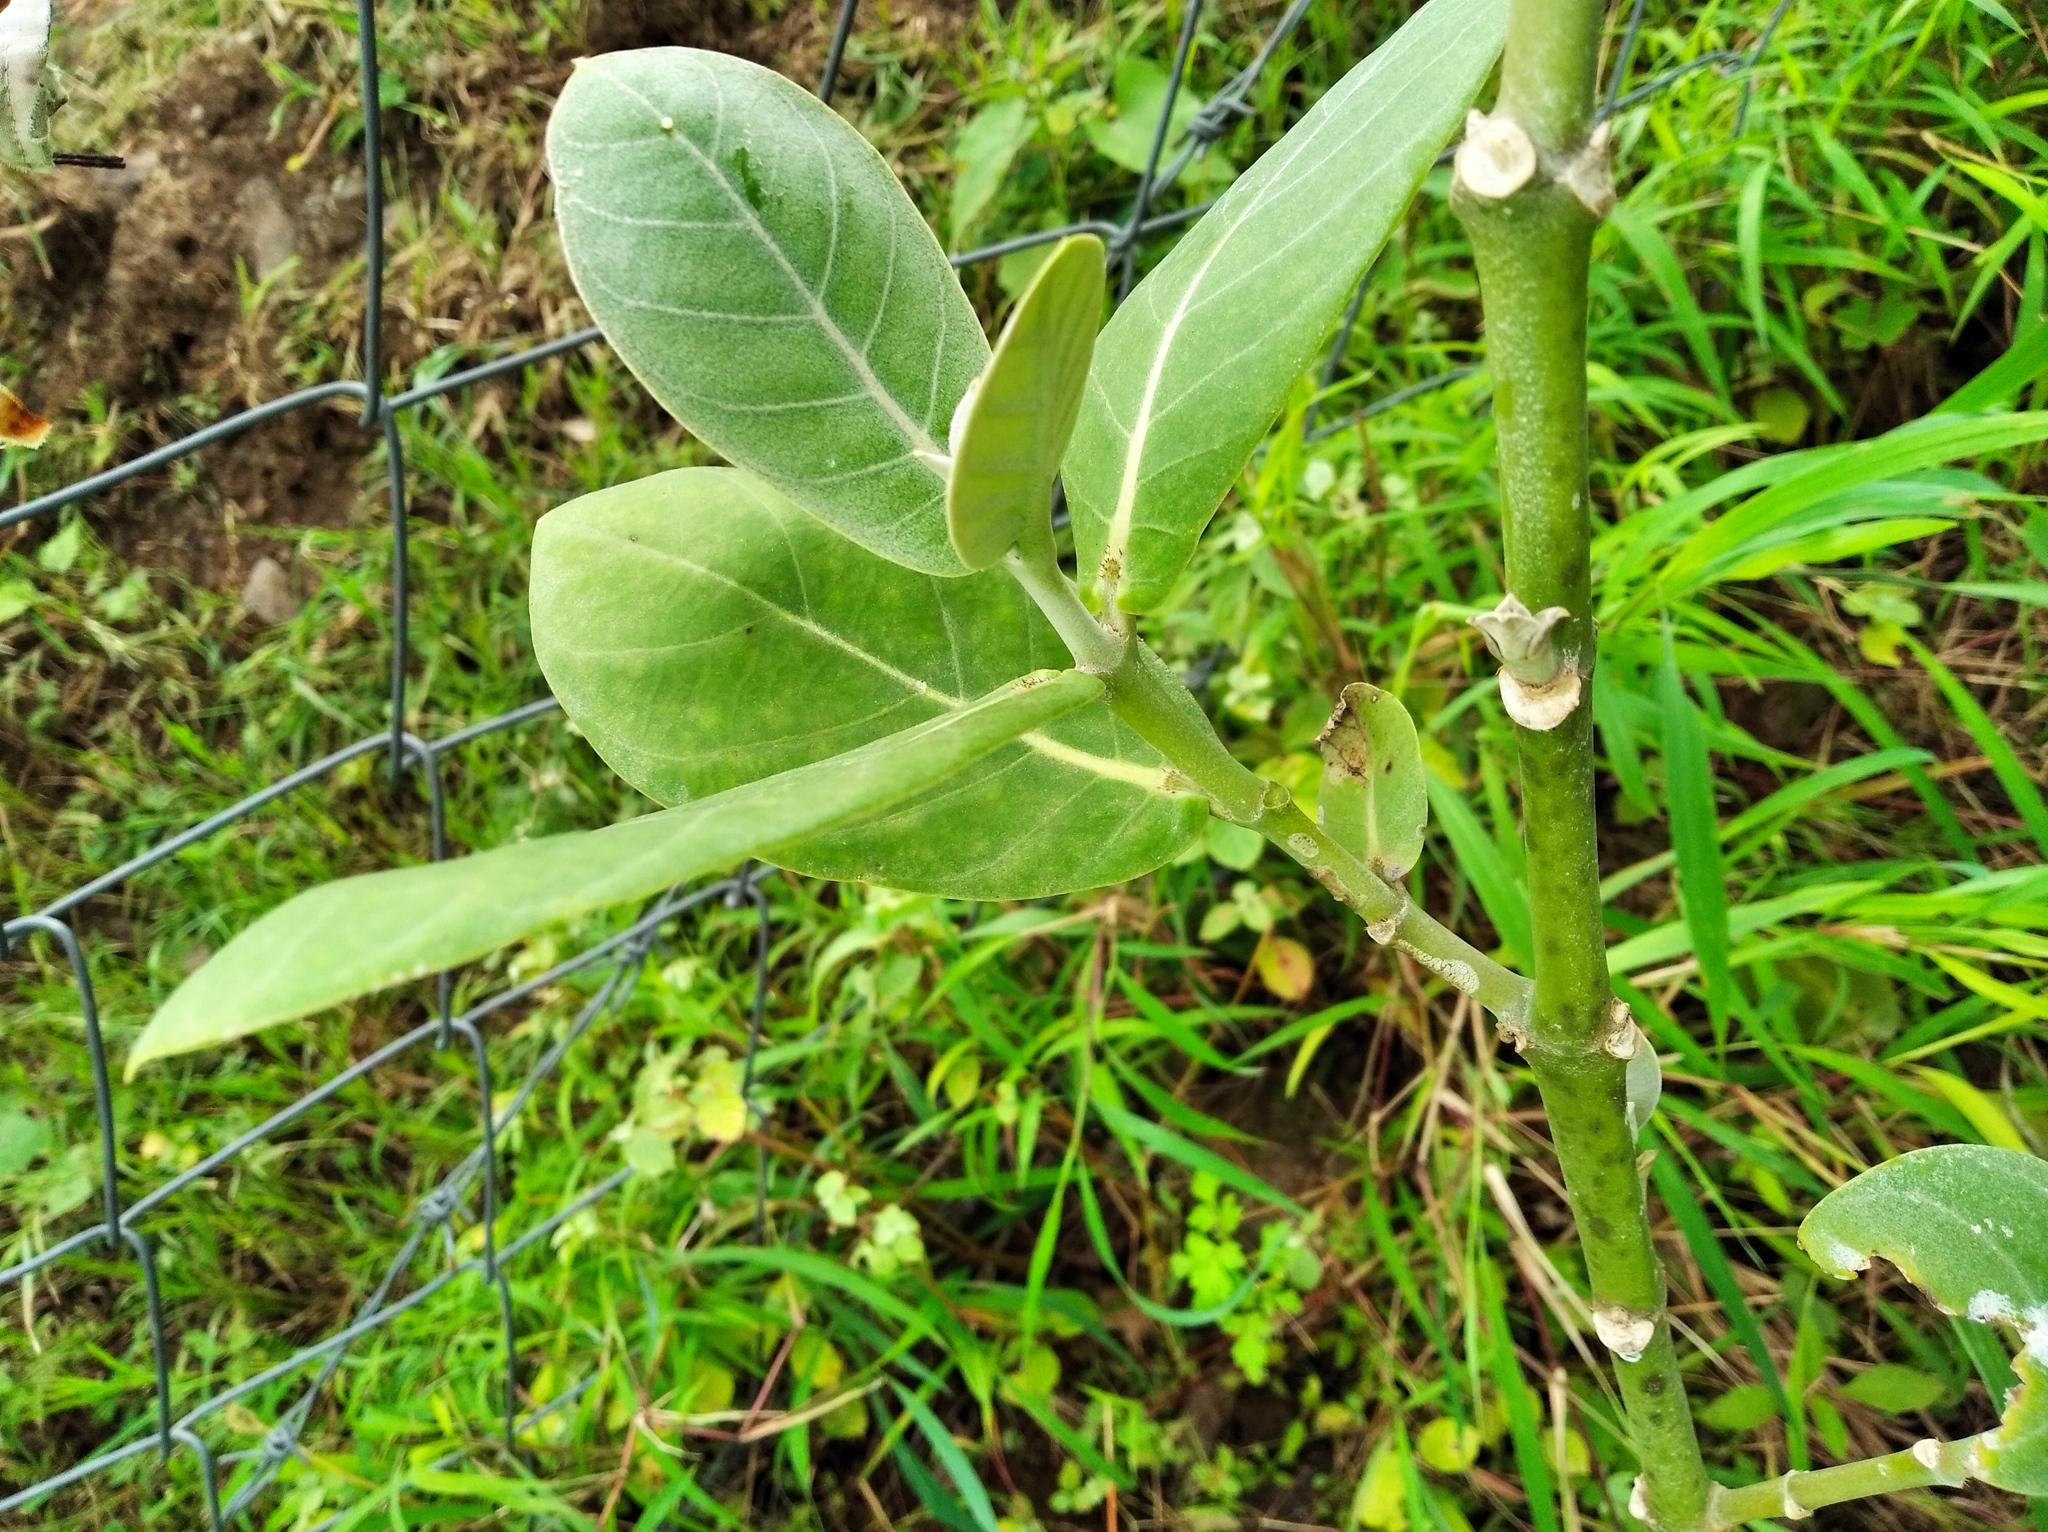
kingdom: Plantae
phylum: Tracheophyta
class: Magnoliopsida
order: Gentianales
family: Apocynaceae
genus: Calotropis
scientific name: Calotropis
